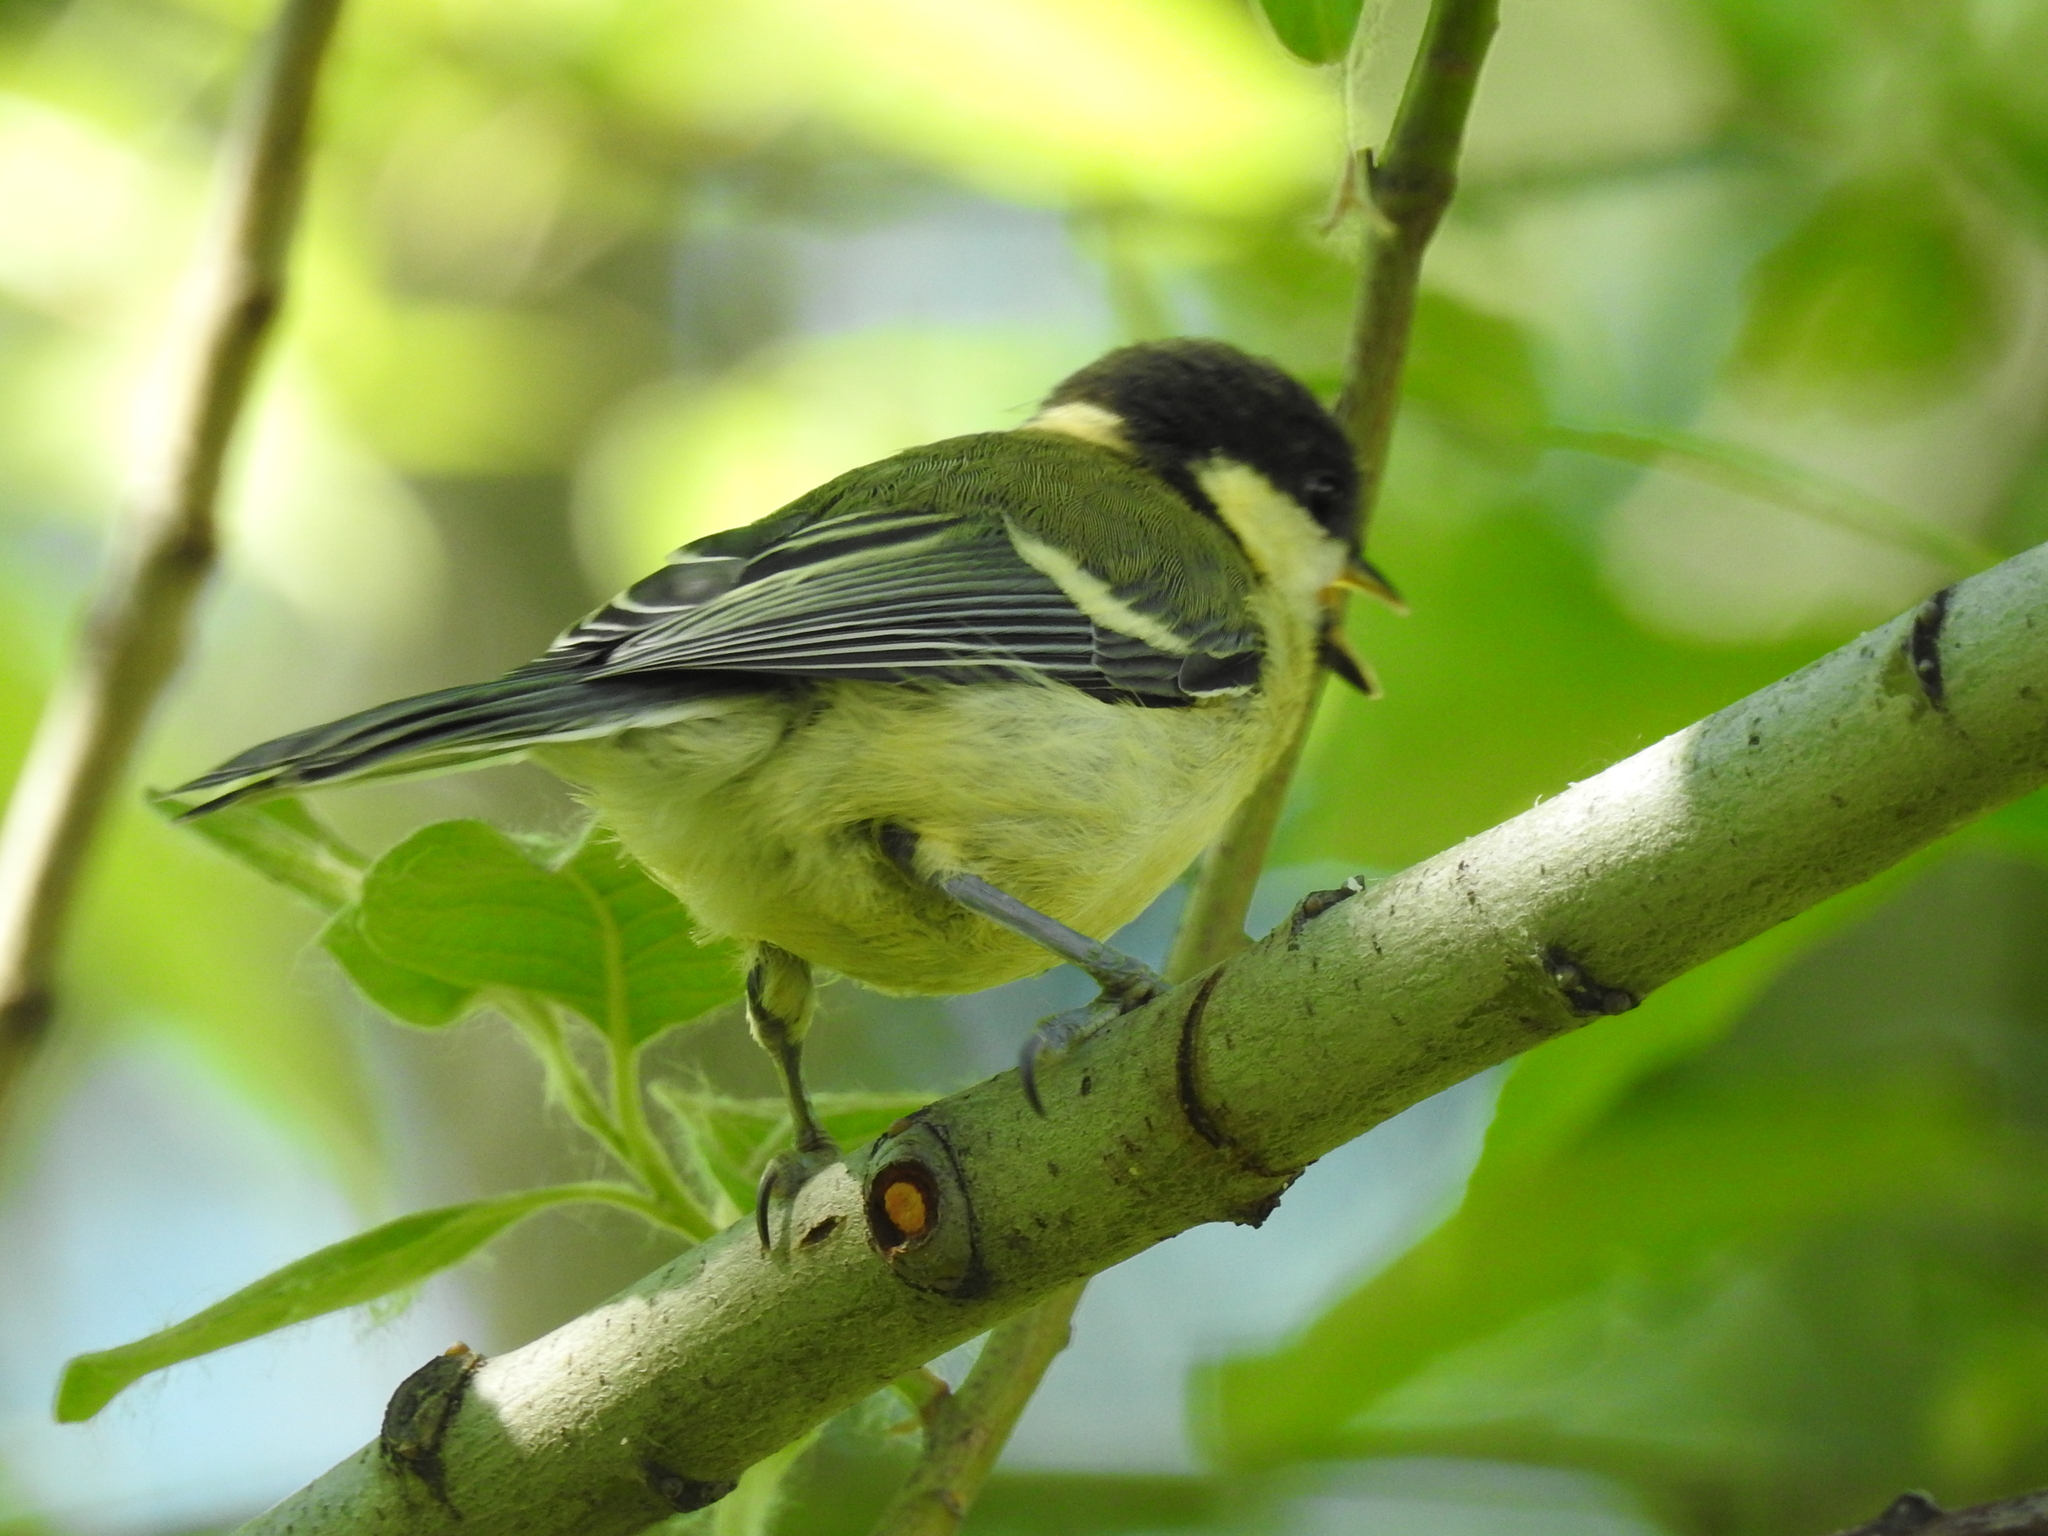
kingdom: Animalia
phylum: Chordata
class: Aves
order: Passeriformes
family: Paridae
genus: Parus
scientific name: Parus major
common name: Great tit
